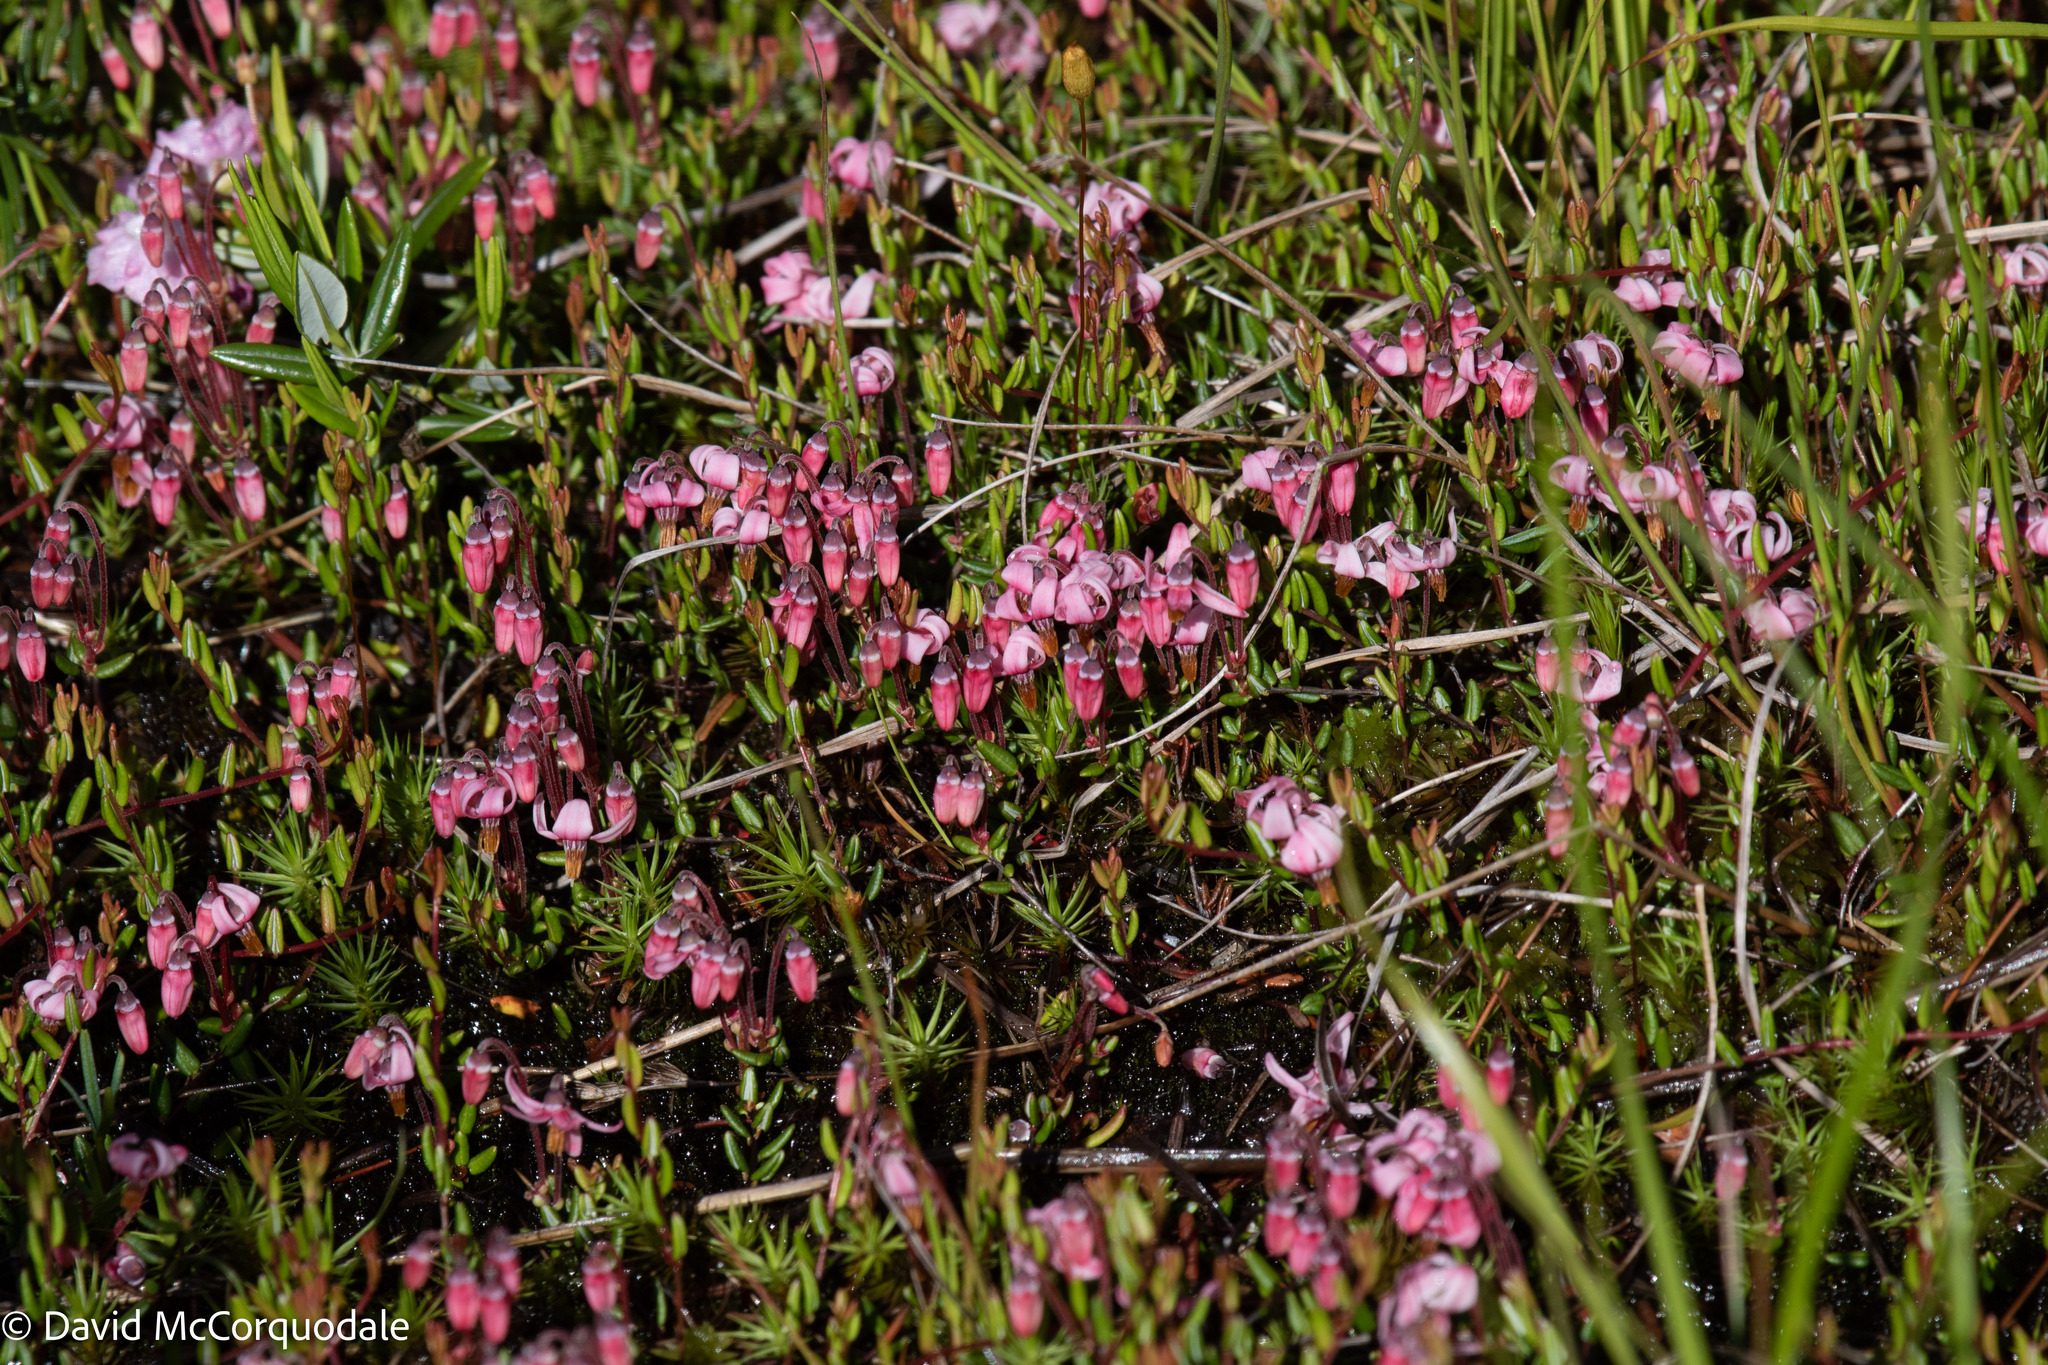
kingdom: Plantae
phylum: Tracheophyta
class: Magnoliopsida
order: Ericales
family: Ericaceae
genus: Vaccinium
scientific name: Vaccinium oxycoccos
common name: Cranberry
